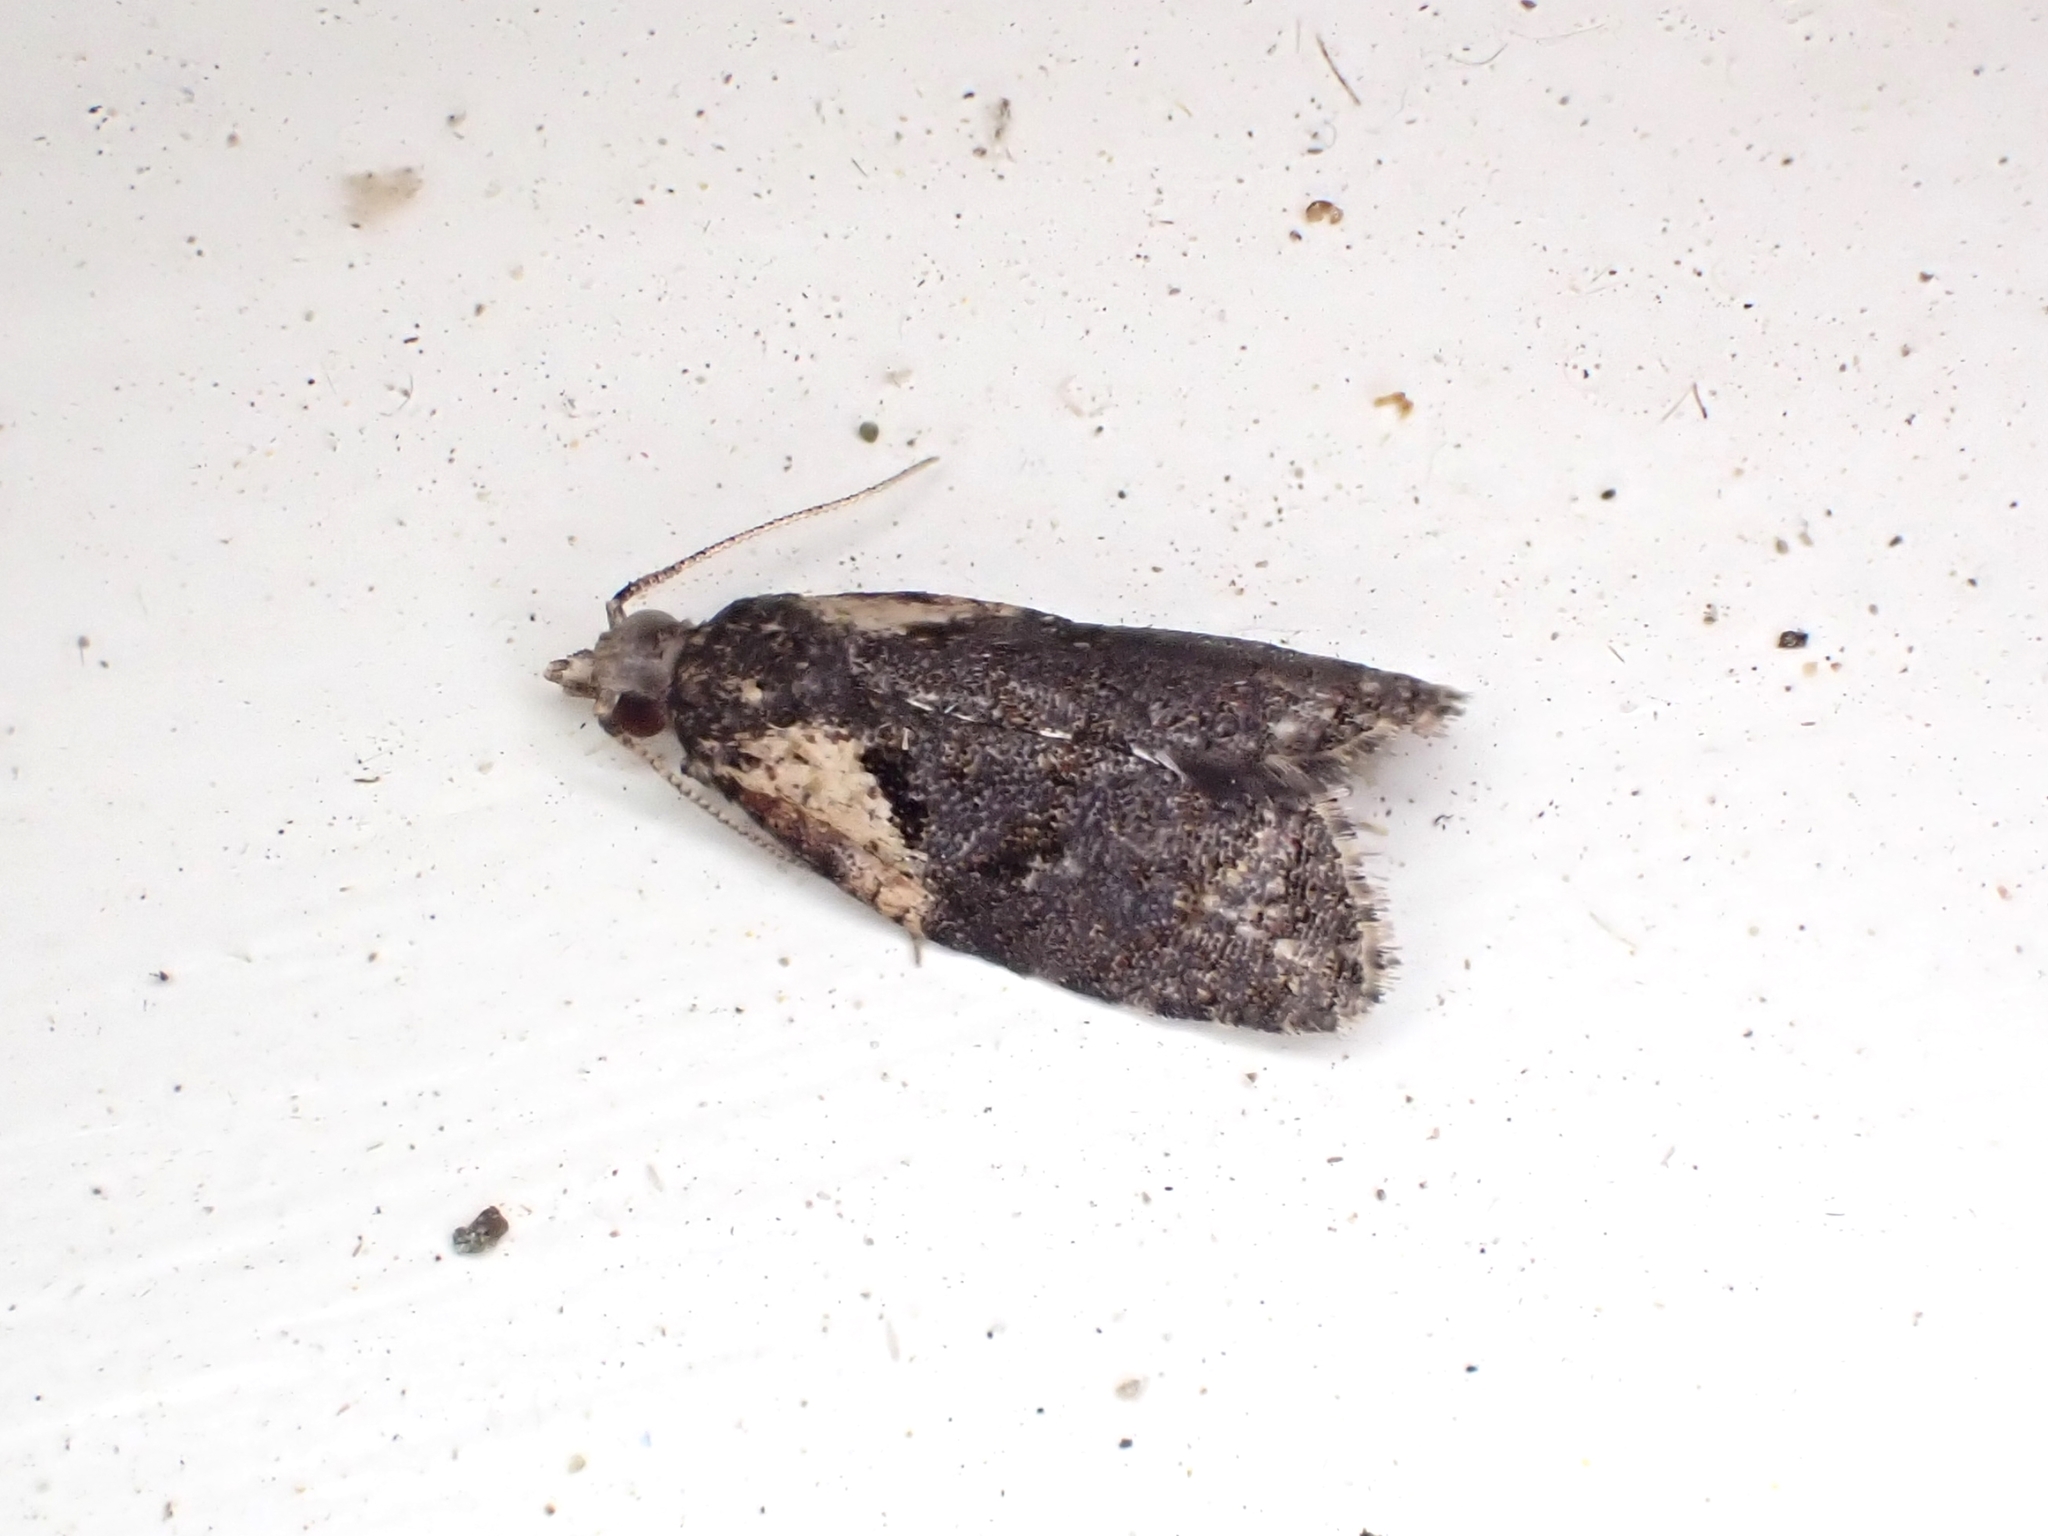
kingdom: Animalia
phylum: Arthropoda
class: Insecta
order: Lepidoptera
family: Tortricidae
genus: Capua
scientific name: Capua intractana
